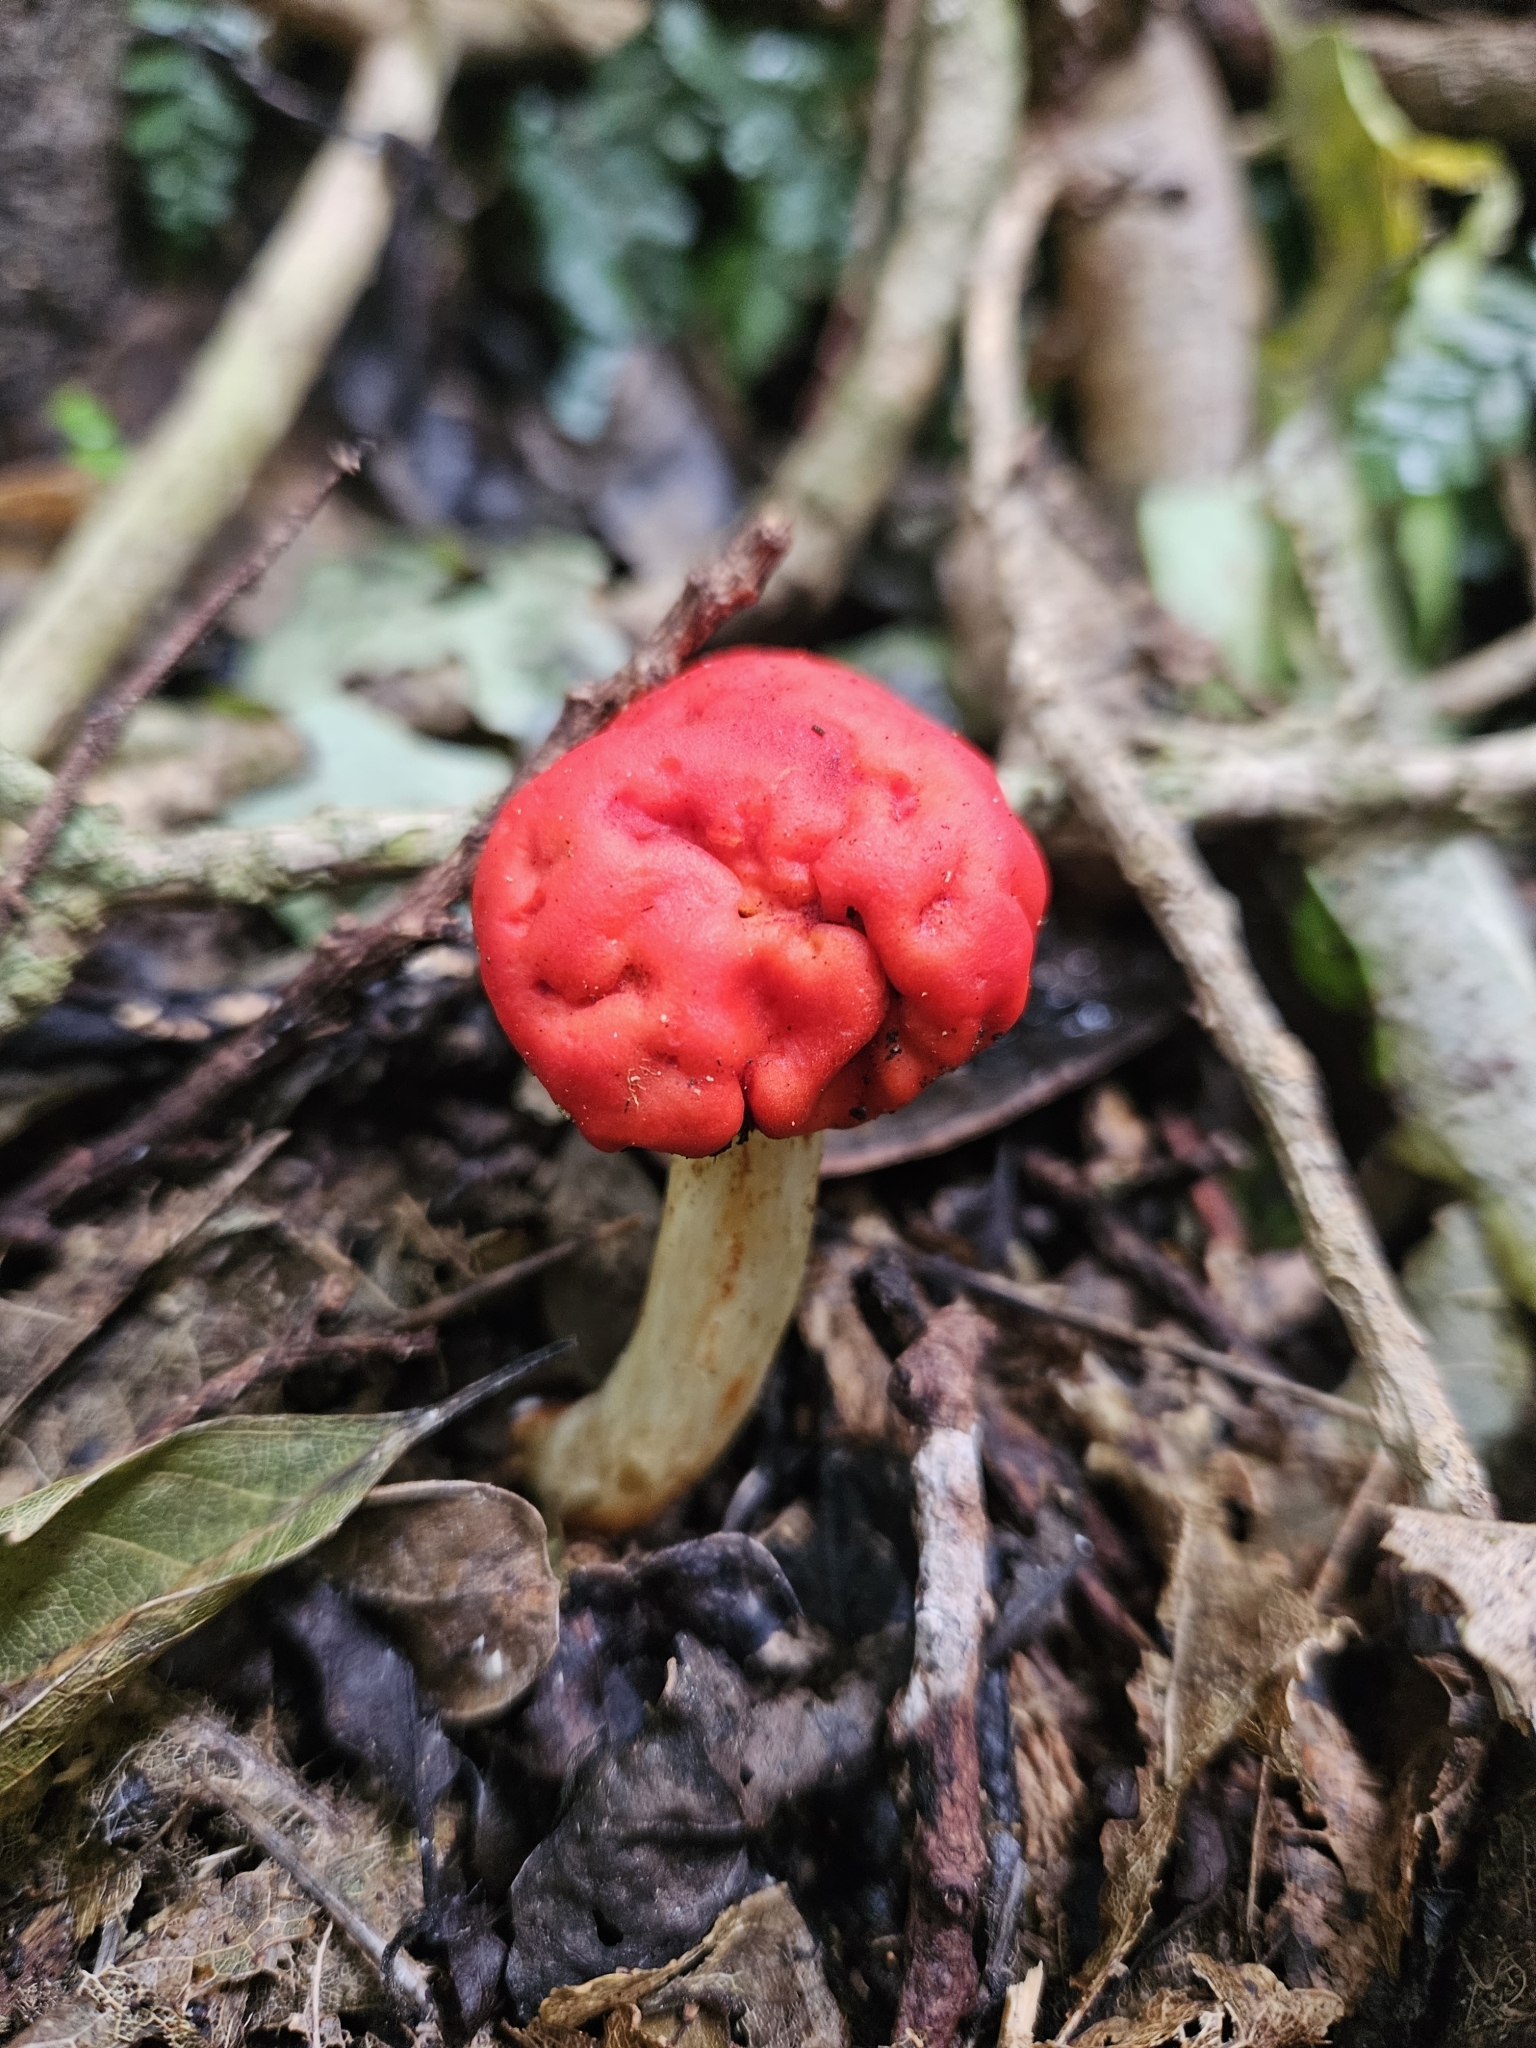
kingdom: Fungi
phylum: Basidiomycota
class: Agaricomycetes
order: Agaricales
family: Strophariaceae
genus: Leratiomyces
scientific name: Leratiomyces erythrocephalus
